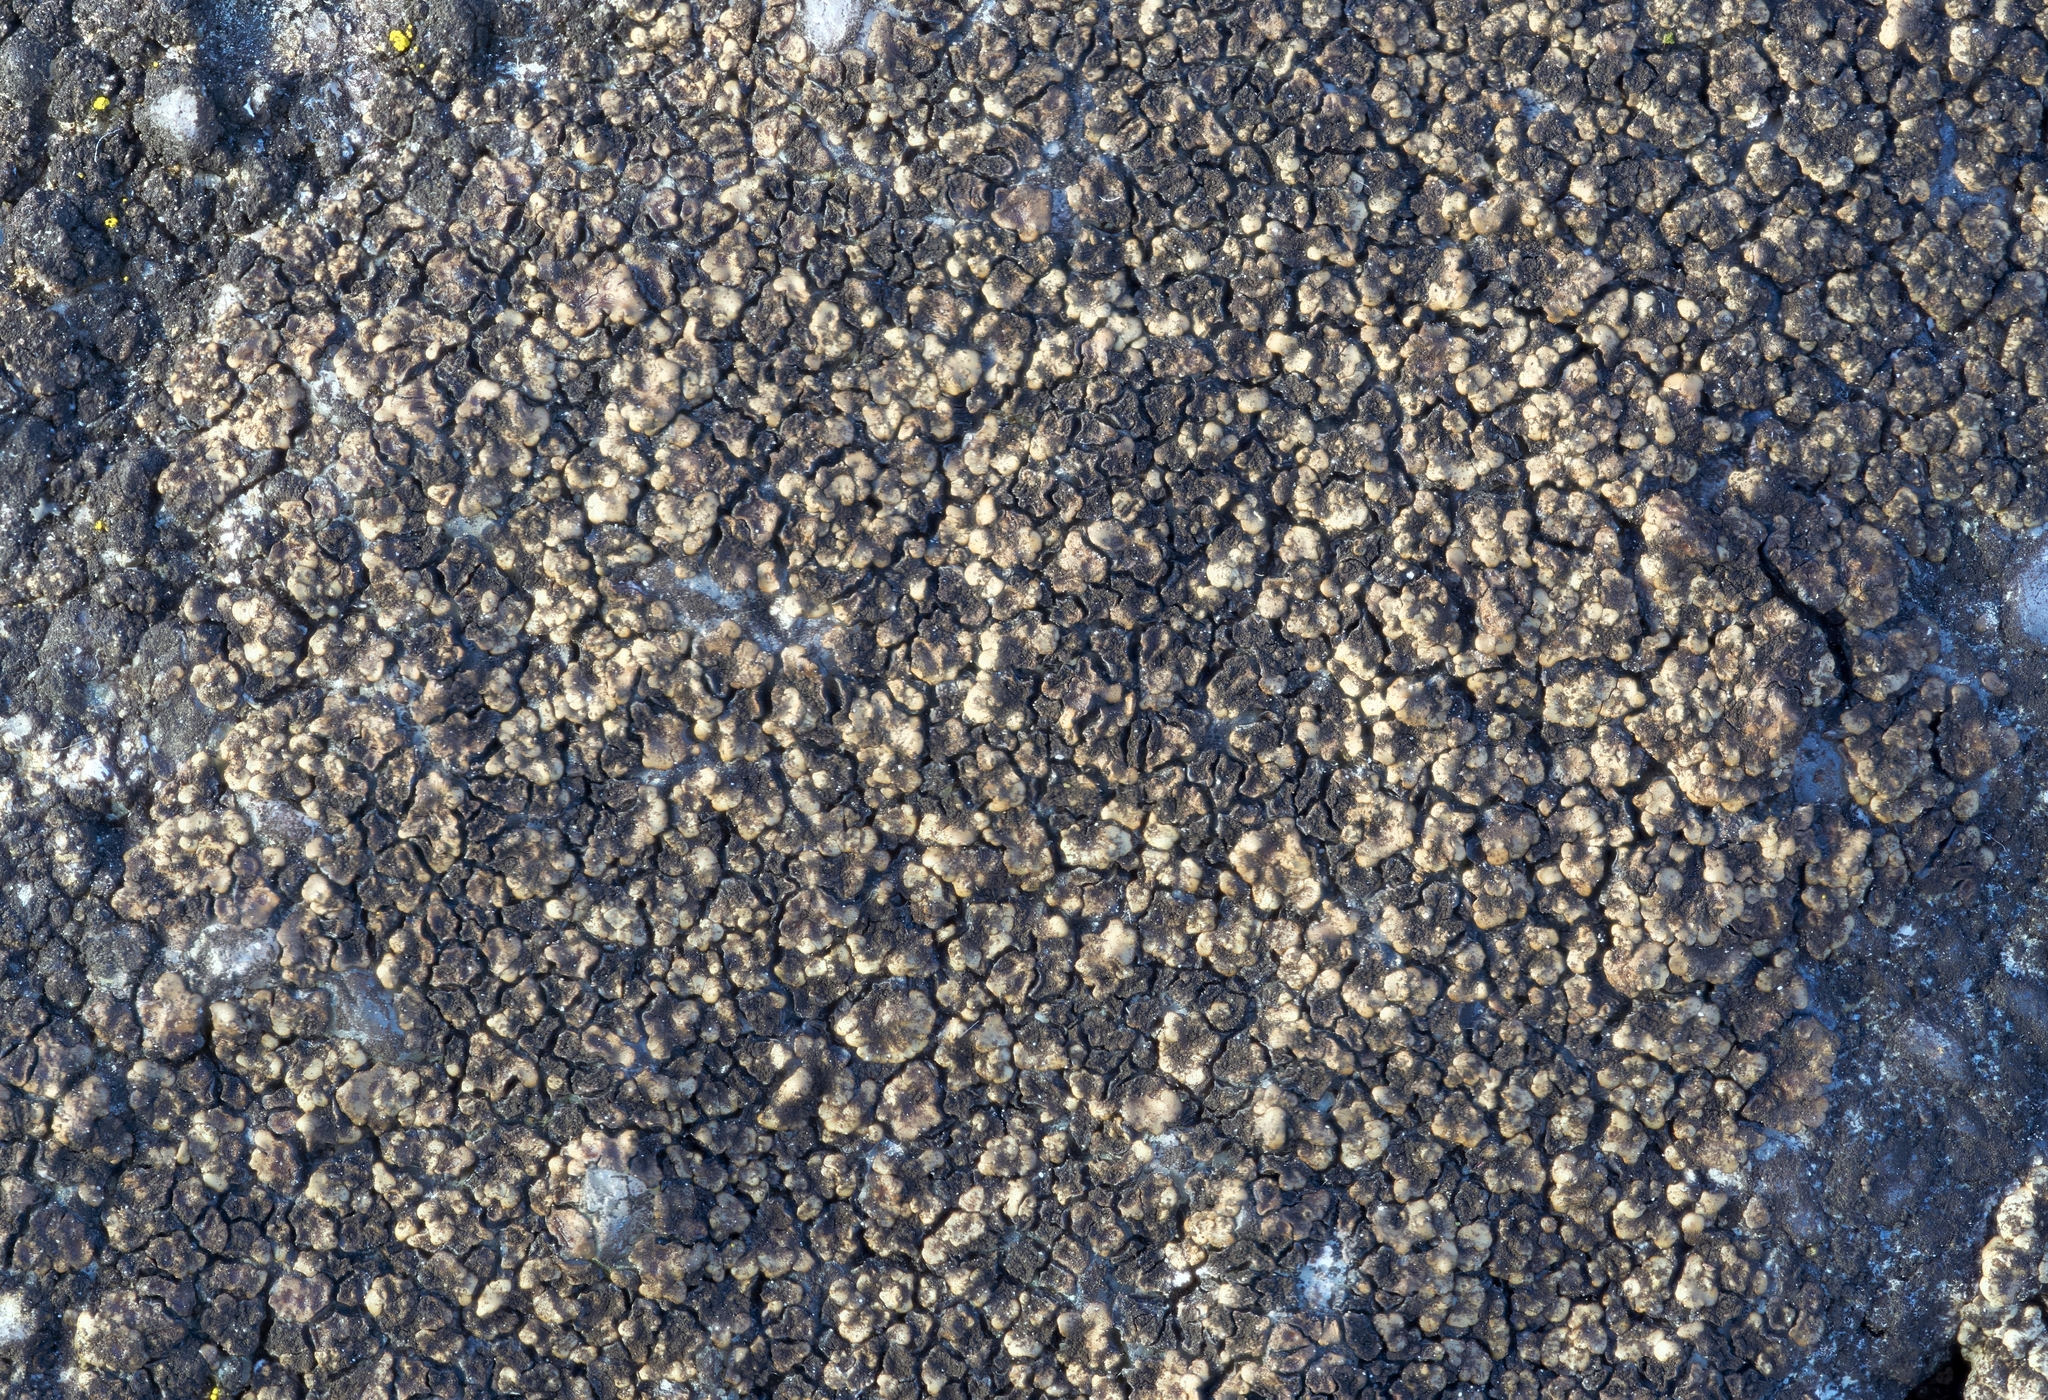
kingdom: Fungi
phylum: Ascomycota
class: Lecanoromycetes
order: Acarosporales
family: Acarosporaceae
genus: Acarospora
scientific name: Acarospora fuscata
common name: Brown cobblestone lichen
